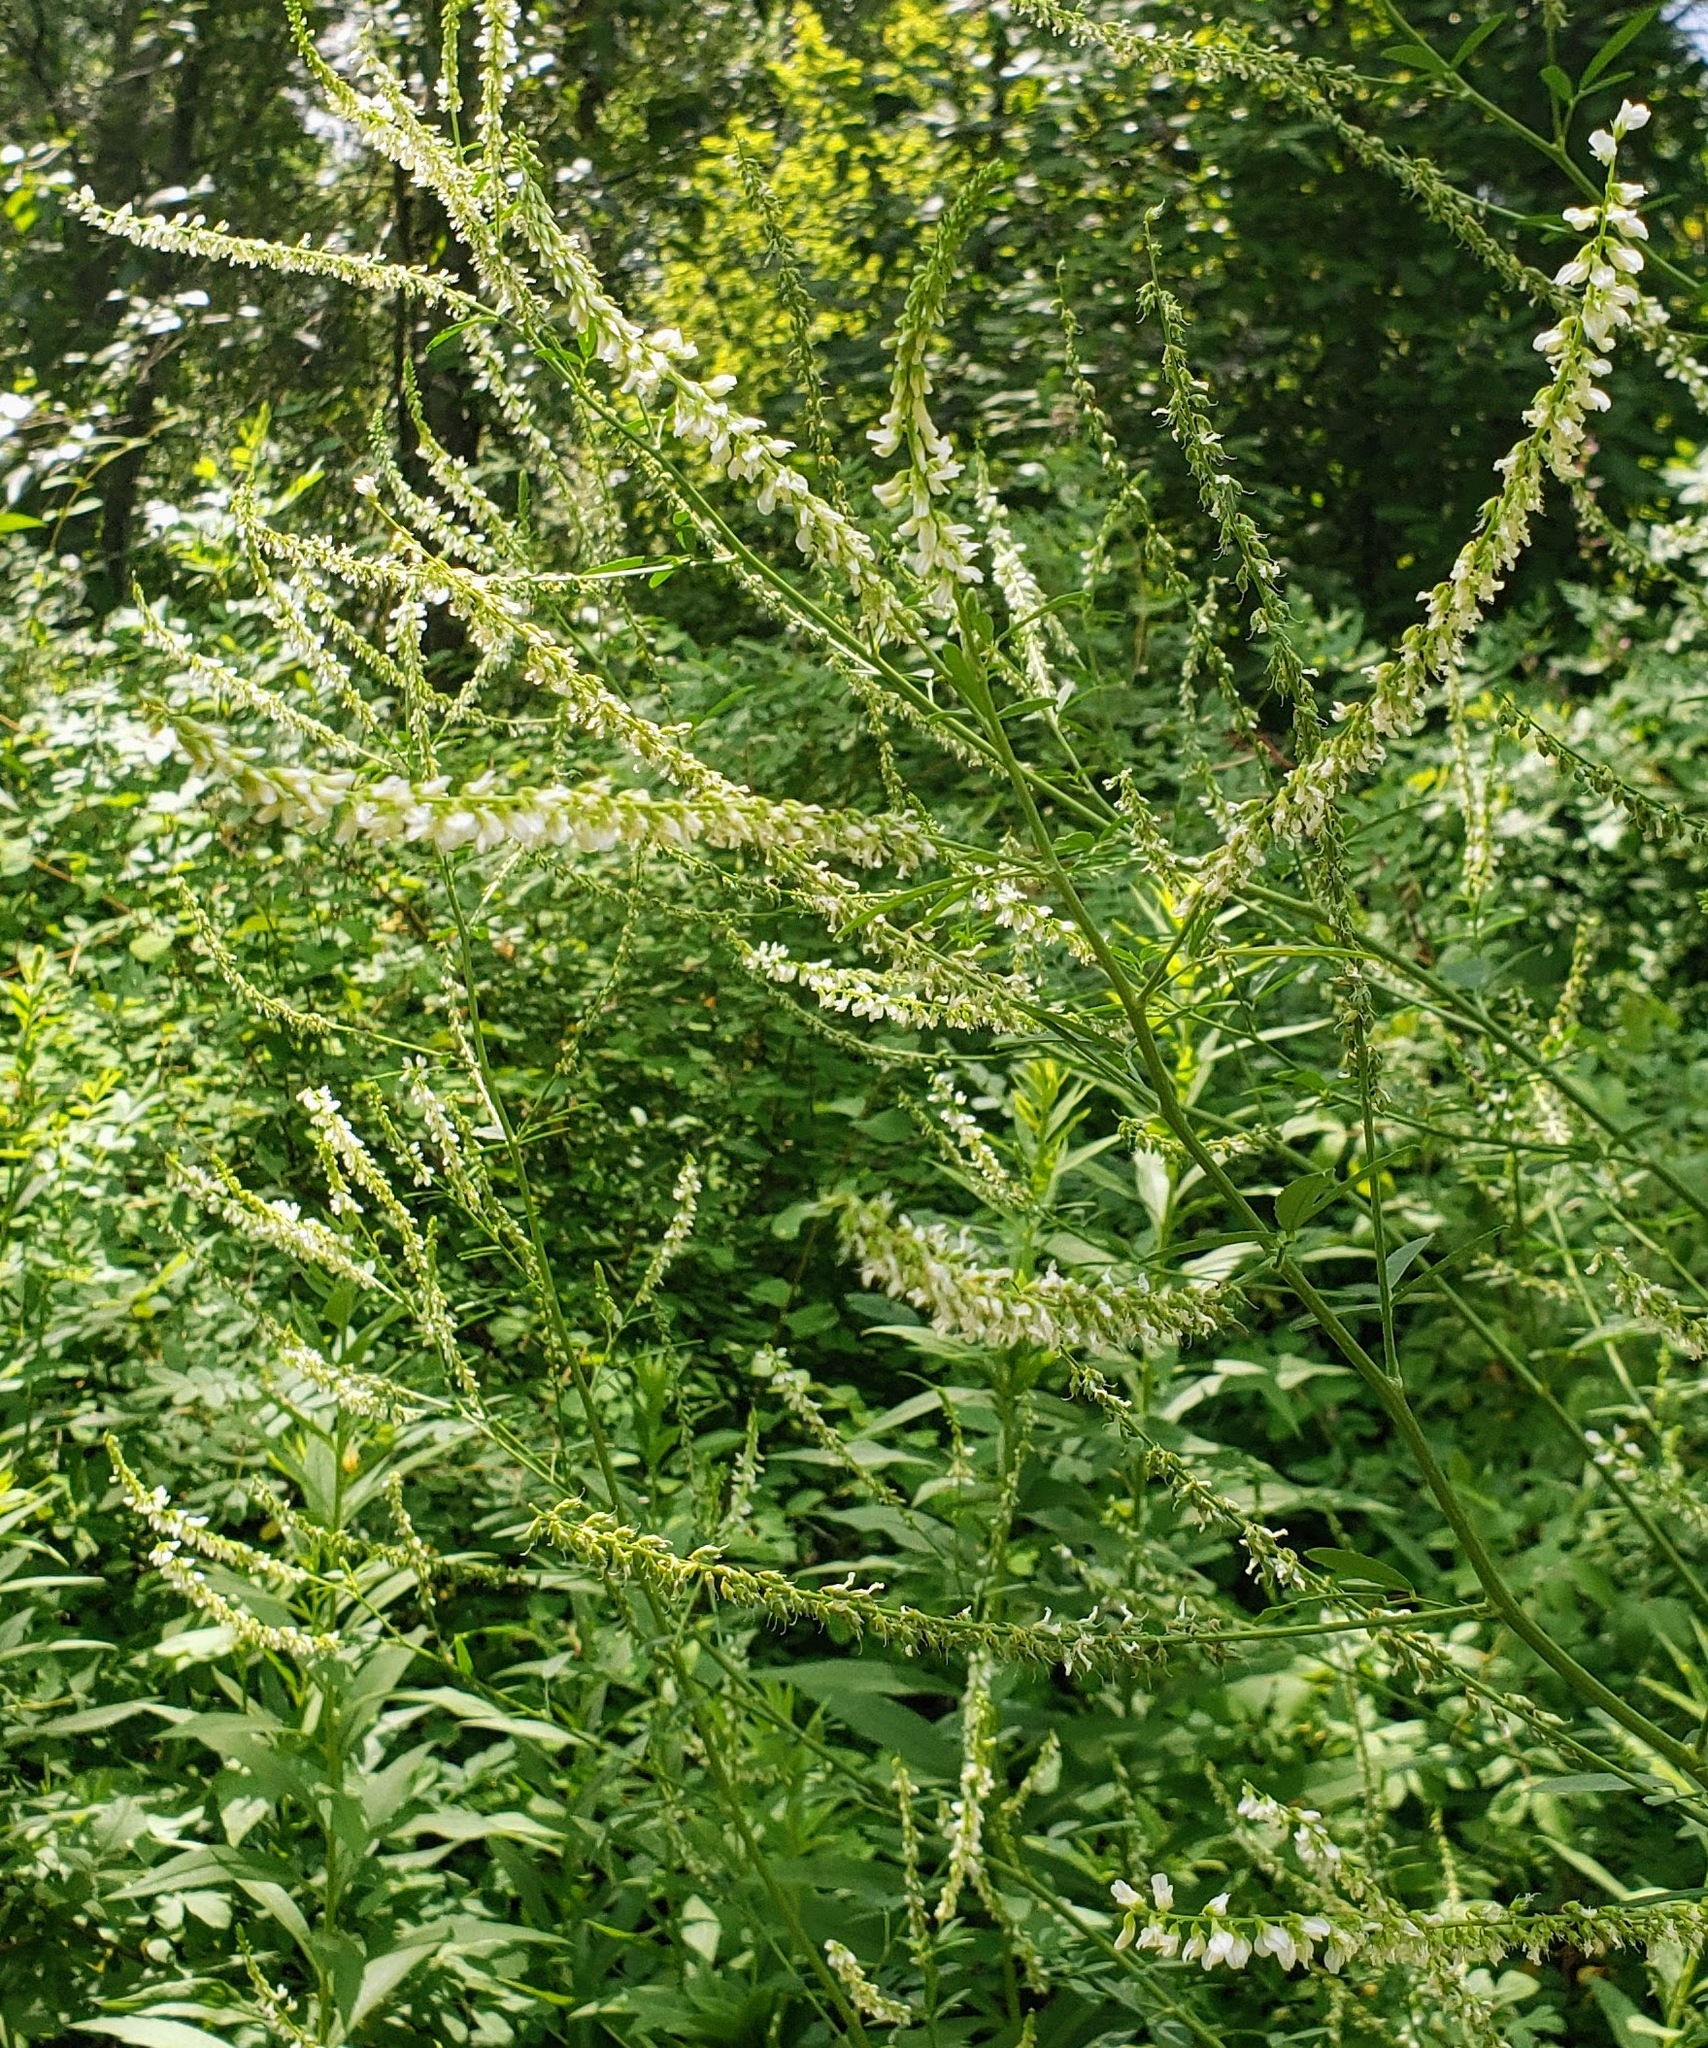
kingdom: Plantae
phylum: Tracheophyta
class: Magnoliopsida
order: Fabales
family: Fabaceae
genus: Melilotus
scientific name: Melilotus albus
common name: White melilot
